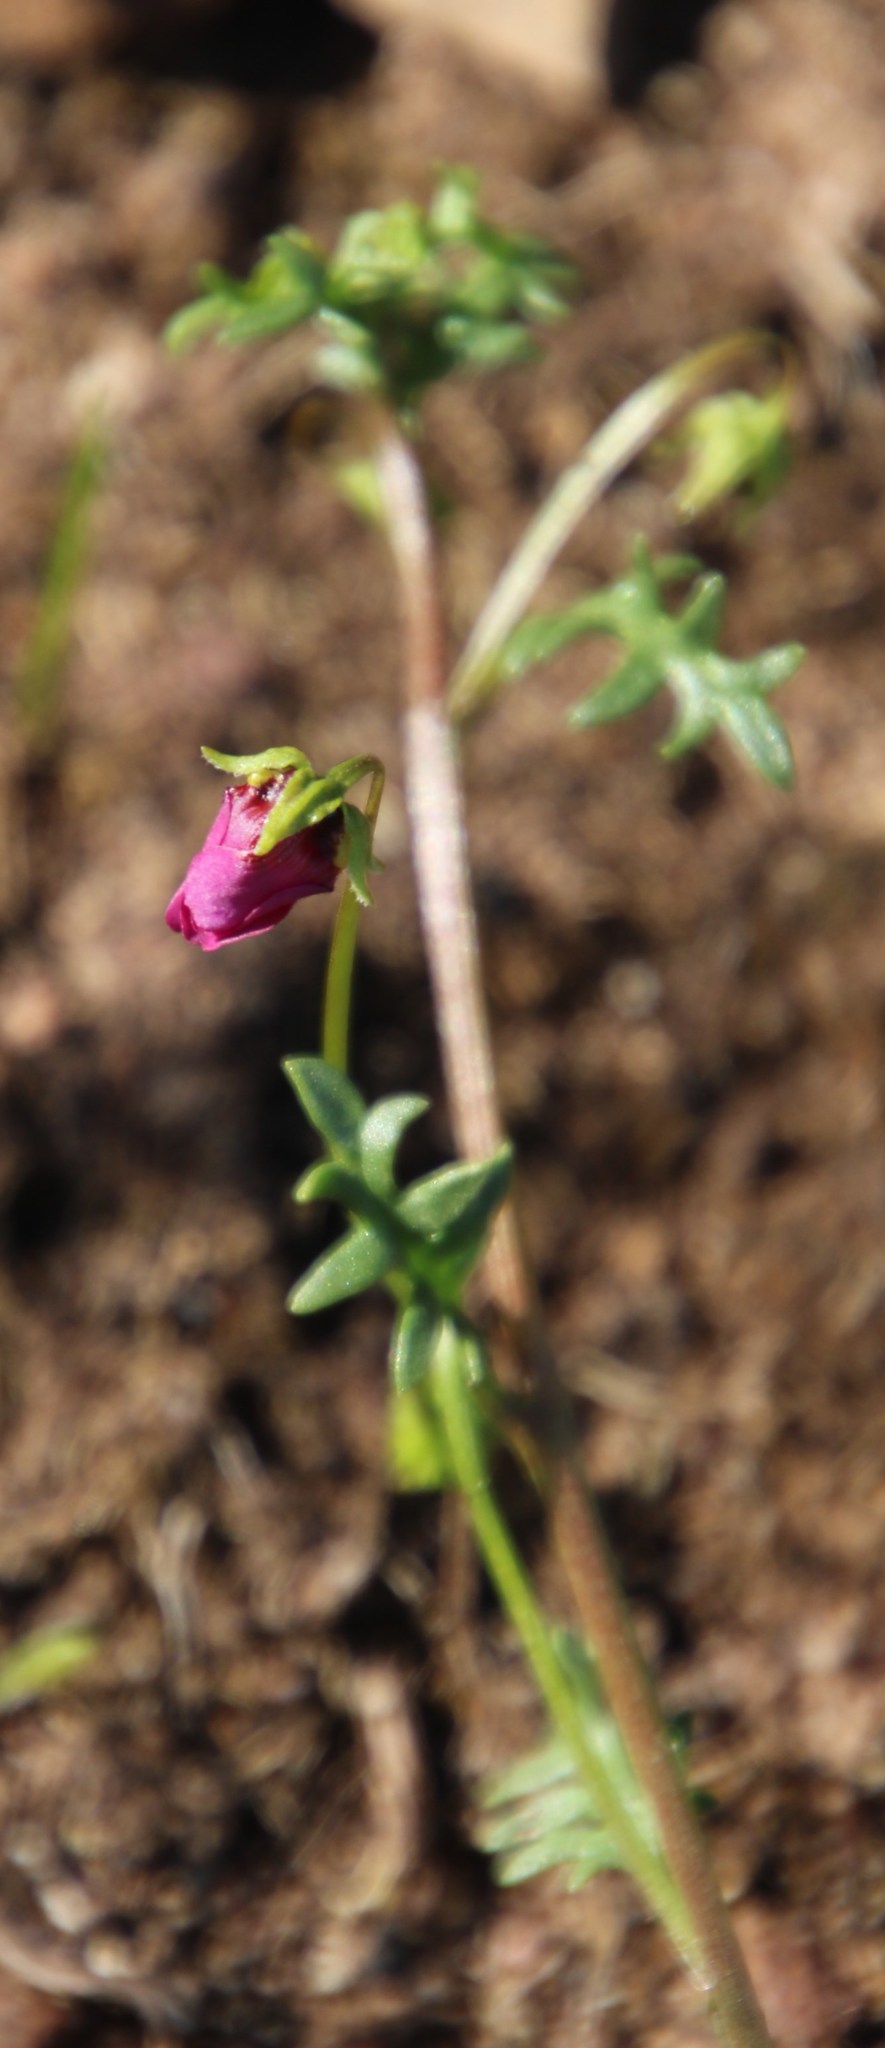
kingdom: Plantae
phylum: Tracheophyta
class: Magnoliopsida
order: Lamiales
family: Scrophulariaceae
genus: Nemesia
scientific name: Nemesia barbata
